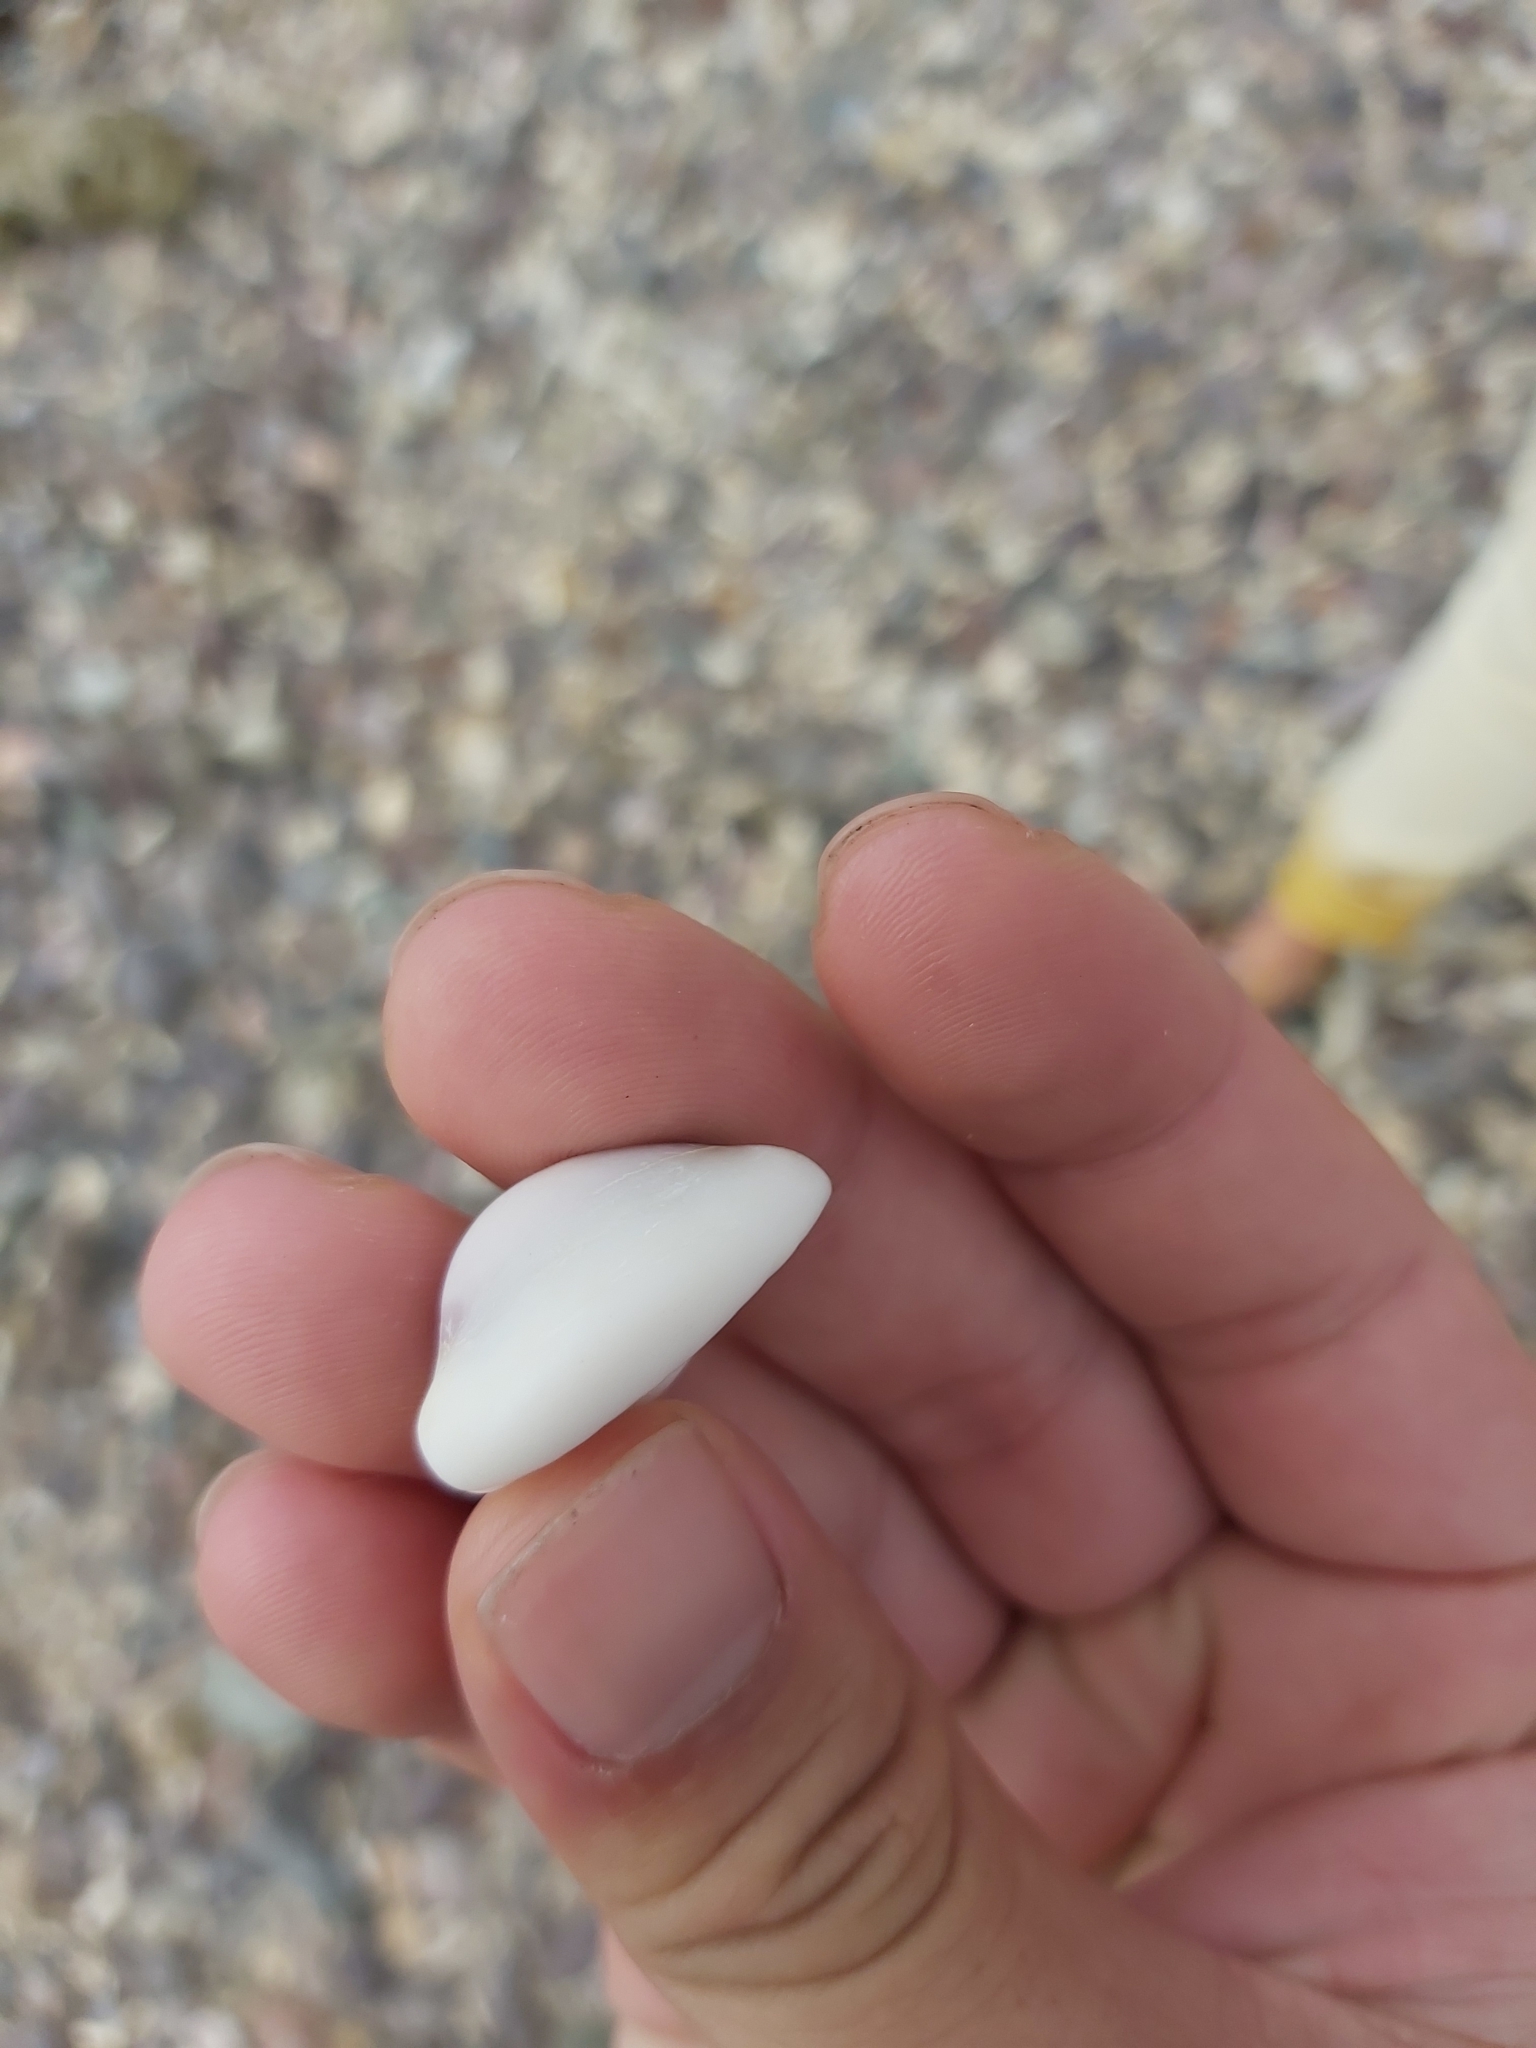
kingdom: Animalia
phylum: Mollusca
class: Gastropoda
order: Littorinimorpha
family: Cypraeidae
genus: Monetaria
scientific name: Monetaria annulus
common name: Ring cowrie
